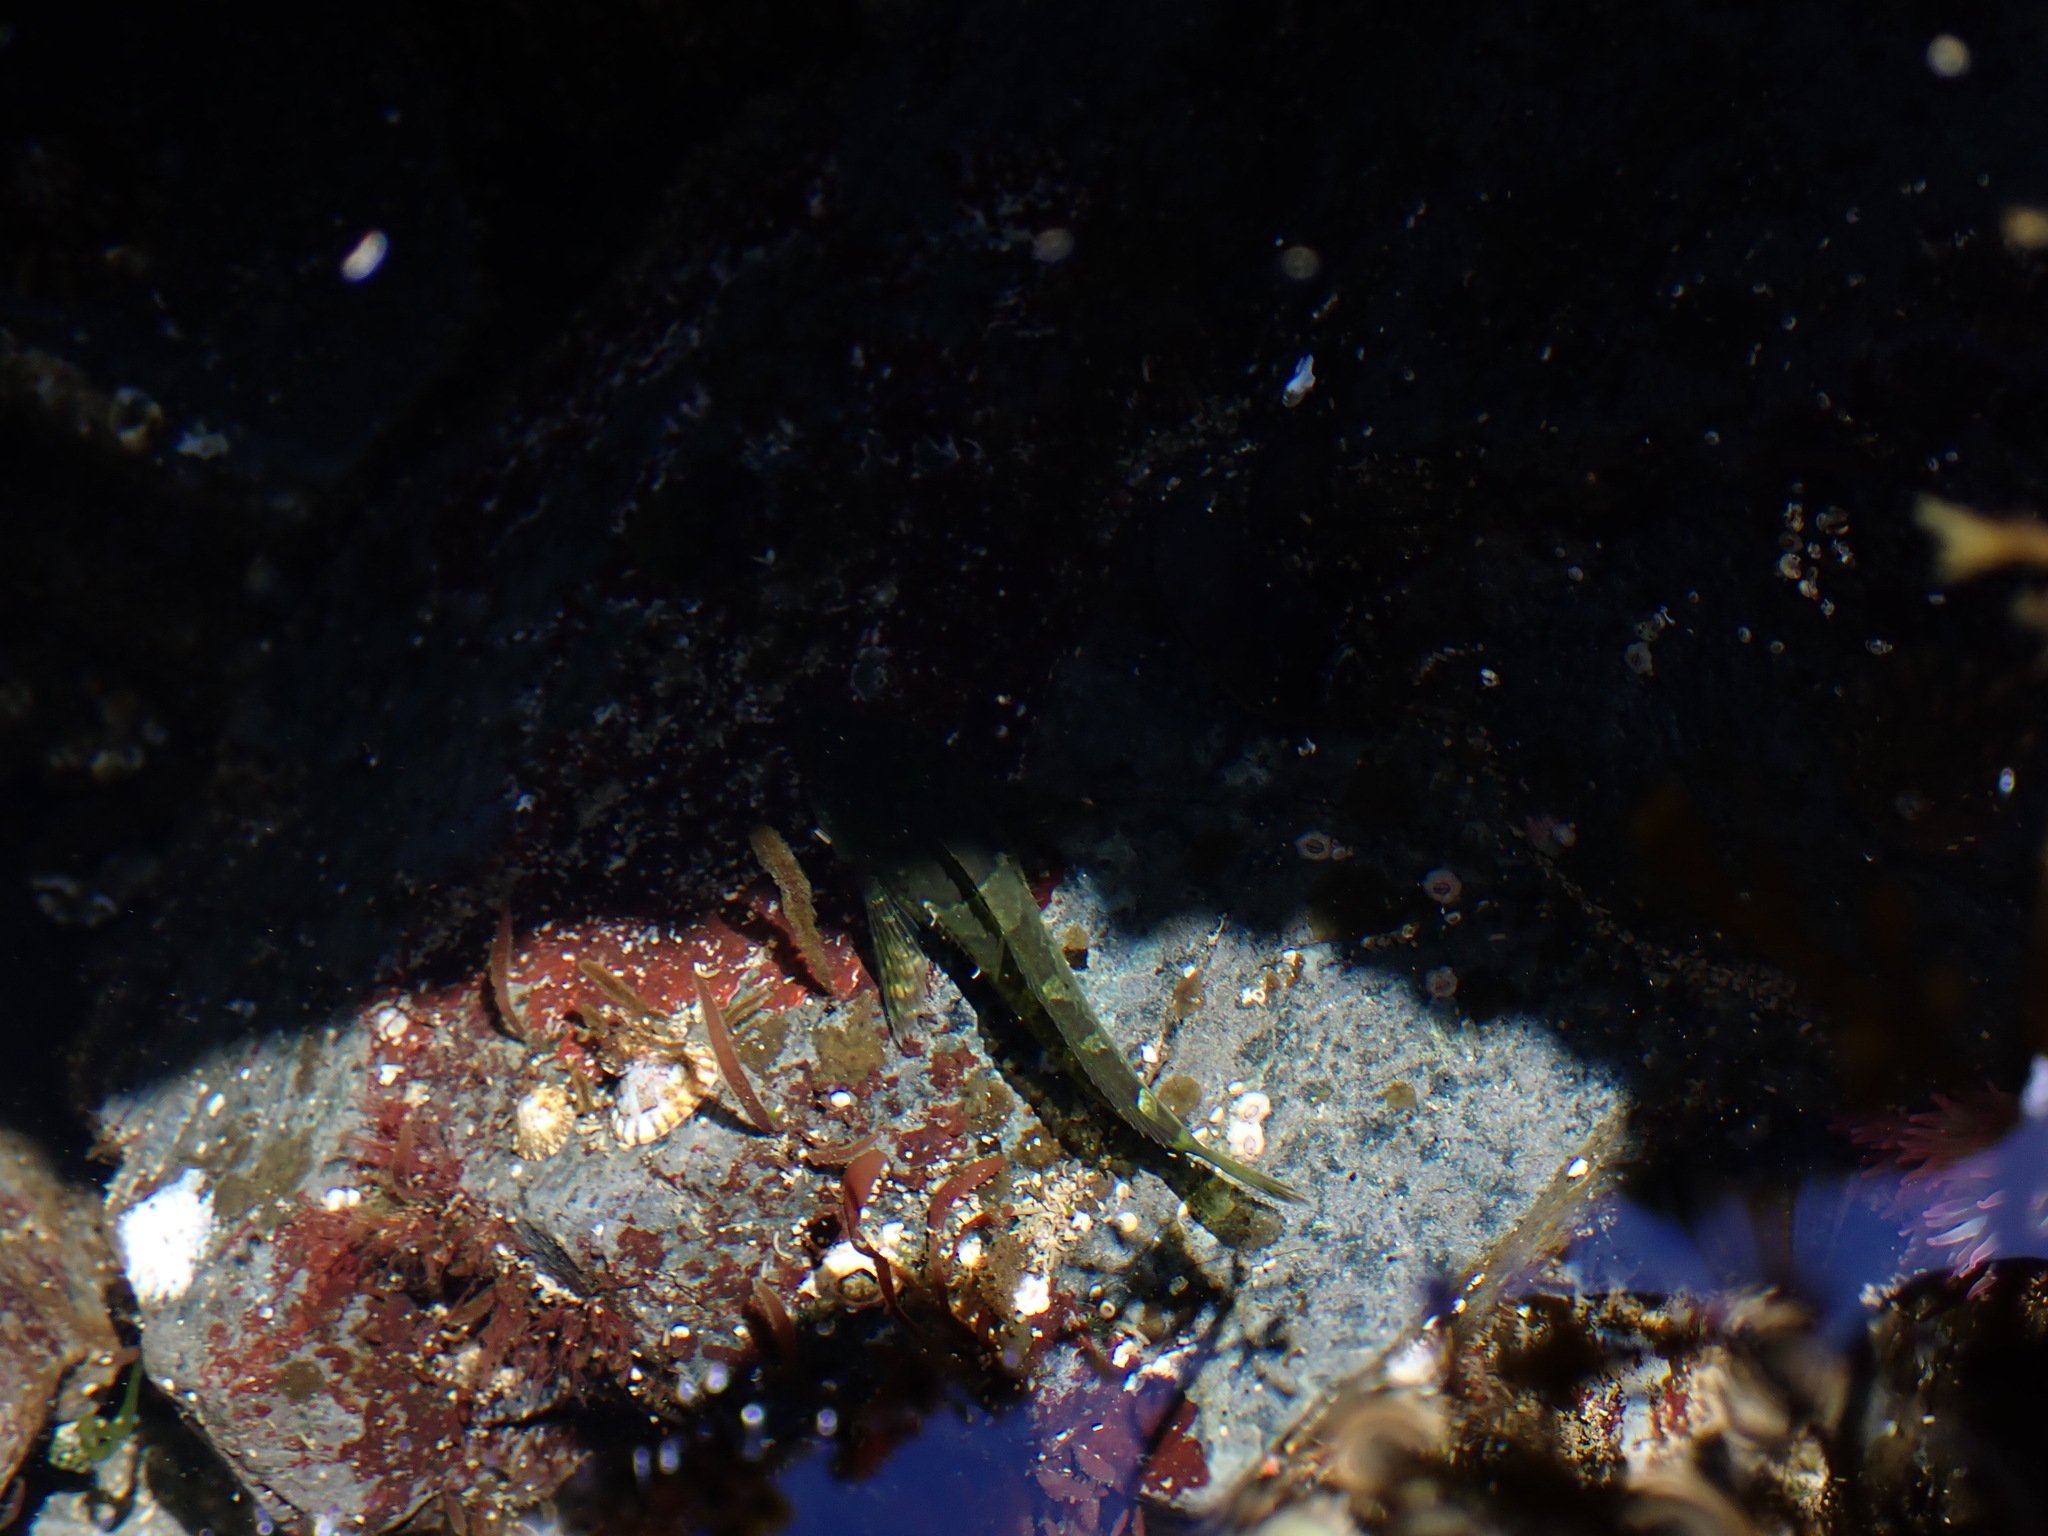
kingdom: Animalia
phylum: Chordata
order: Scorpaeniformes
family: Cottidae
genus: Oligocottus
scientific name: Oligocottus maculosus
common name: Tidepool sculpin
